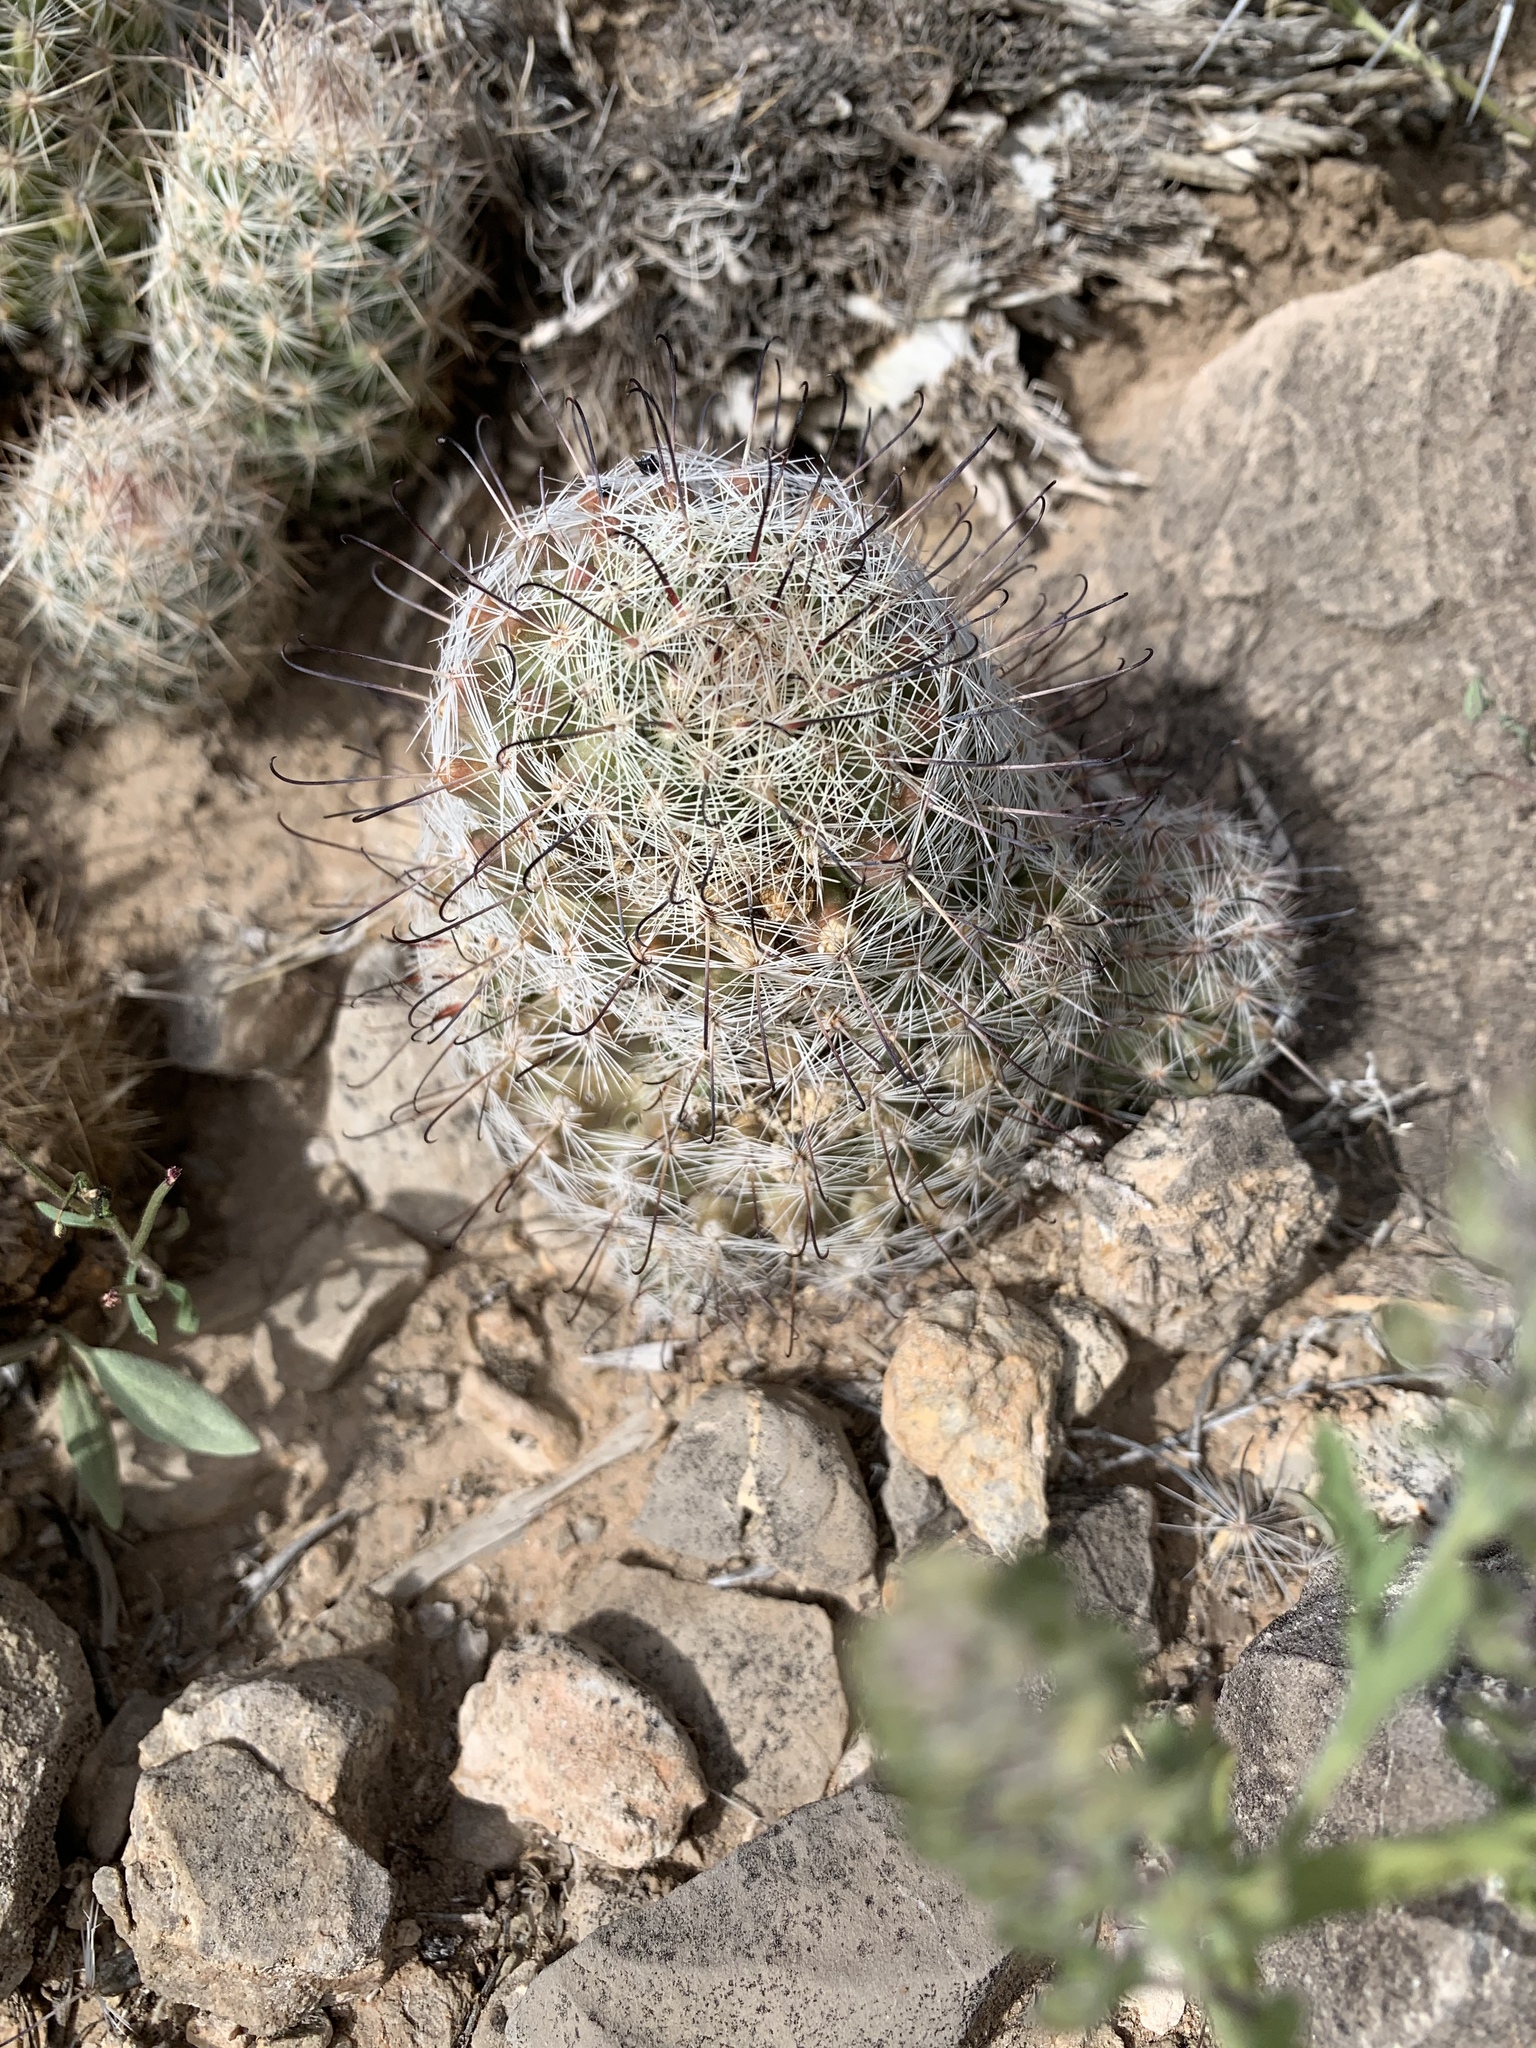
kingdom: Plantae
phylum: Tracheophyta
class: Magnoliopsida
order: Caryophyllales
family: Cactaceae
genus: Cochemiea
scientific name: Cochemiea grahamii
